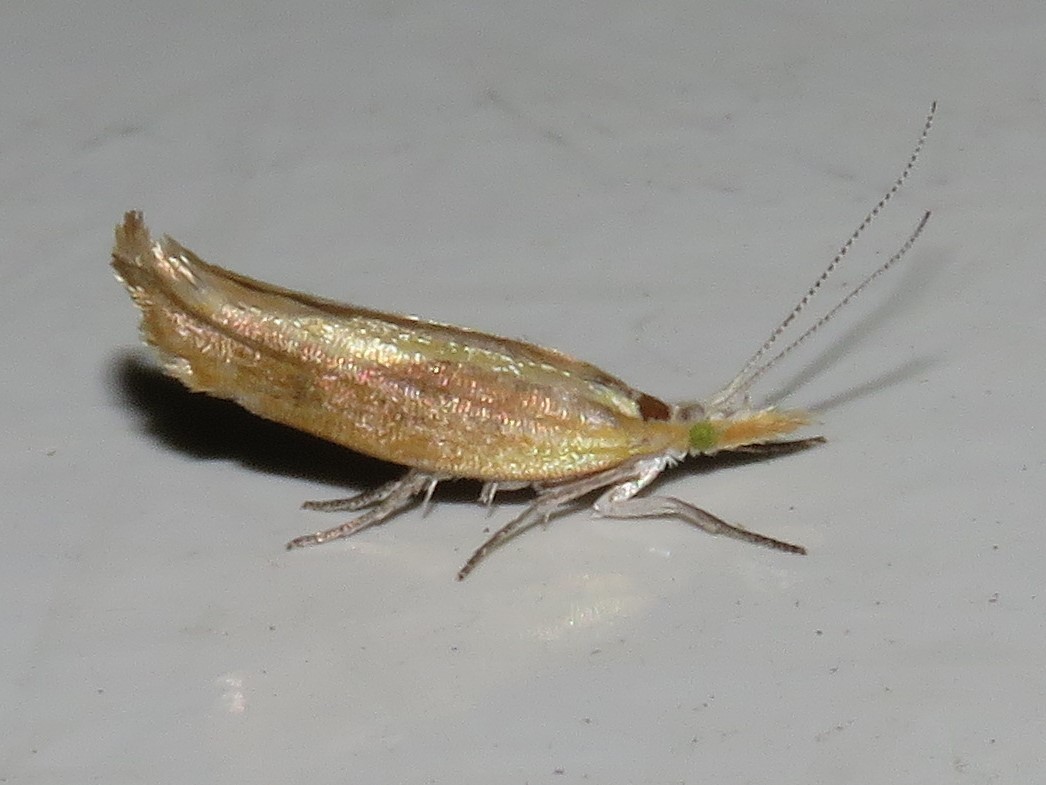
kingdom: Animalia
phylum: Arthropoda
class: Insecta
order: Lepidoptera
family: Ypsolophidae
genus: Ypsolopha
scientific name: Ypsolopha canariella
